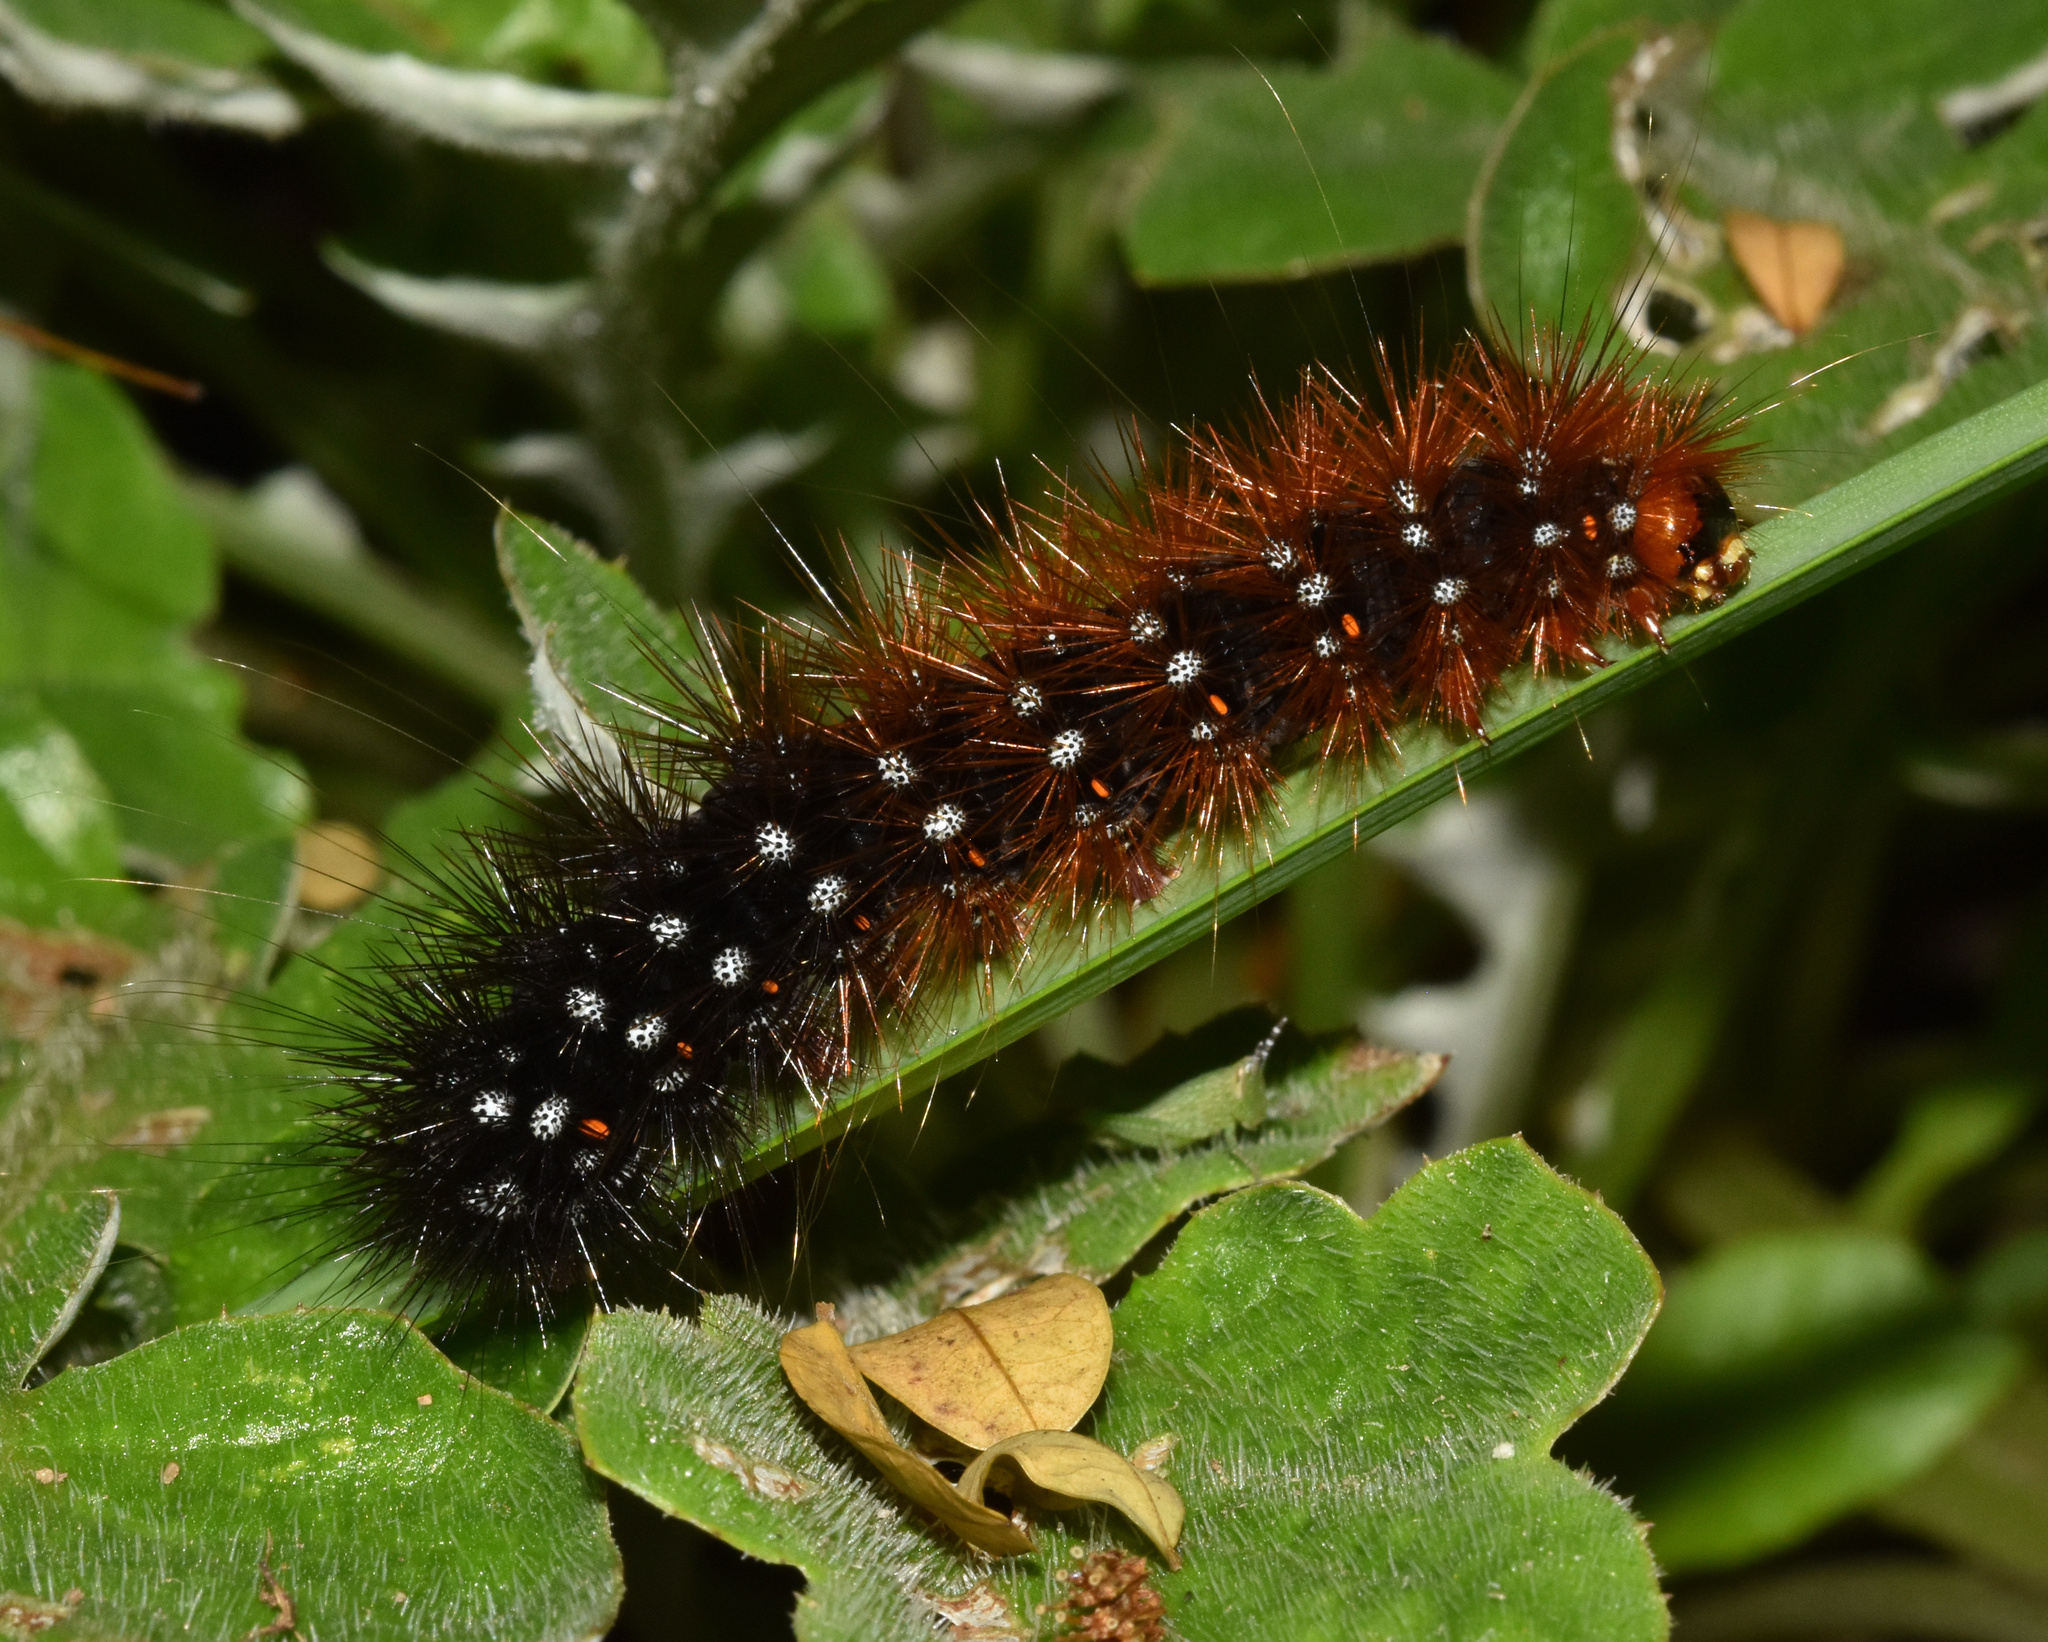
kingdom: Animalia
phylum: Arthropoda
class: Insecta
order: Lepidoptera
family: Erebidae
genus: Rhodogastria
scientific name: Rhodogastria similis
